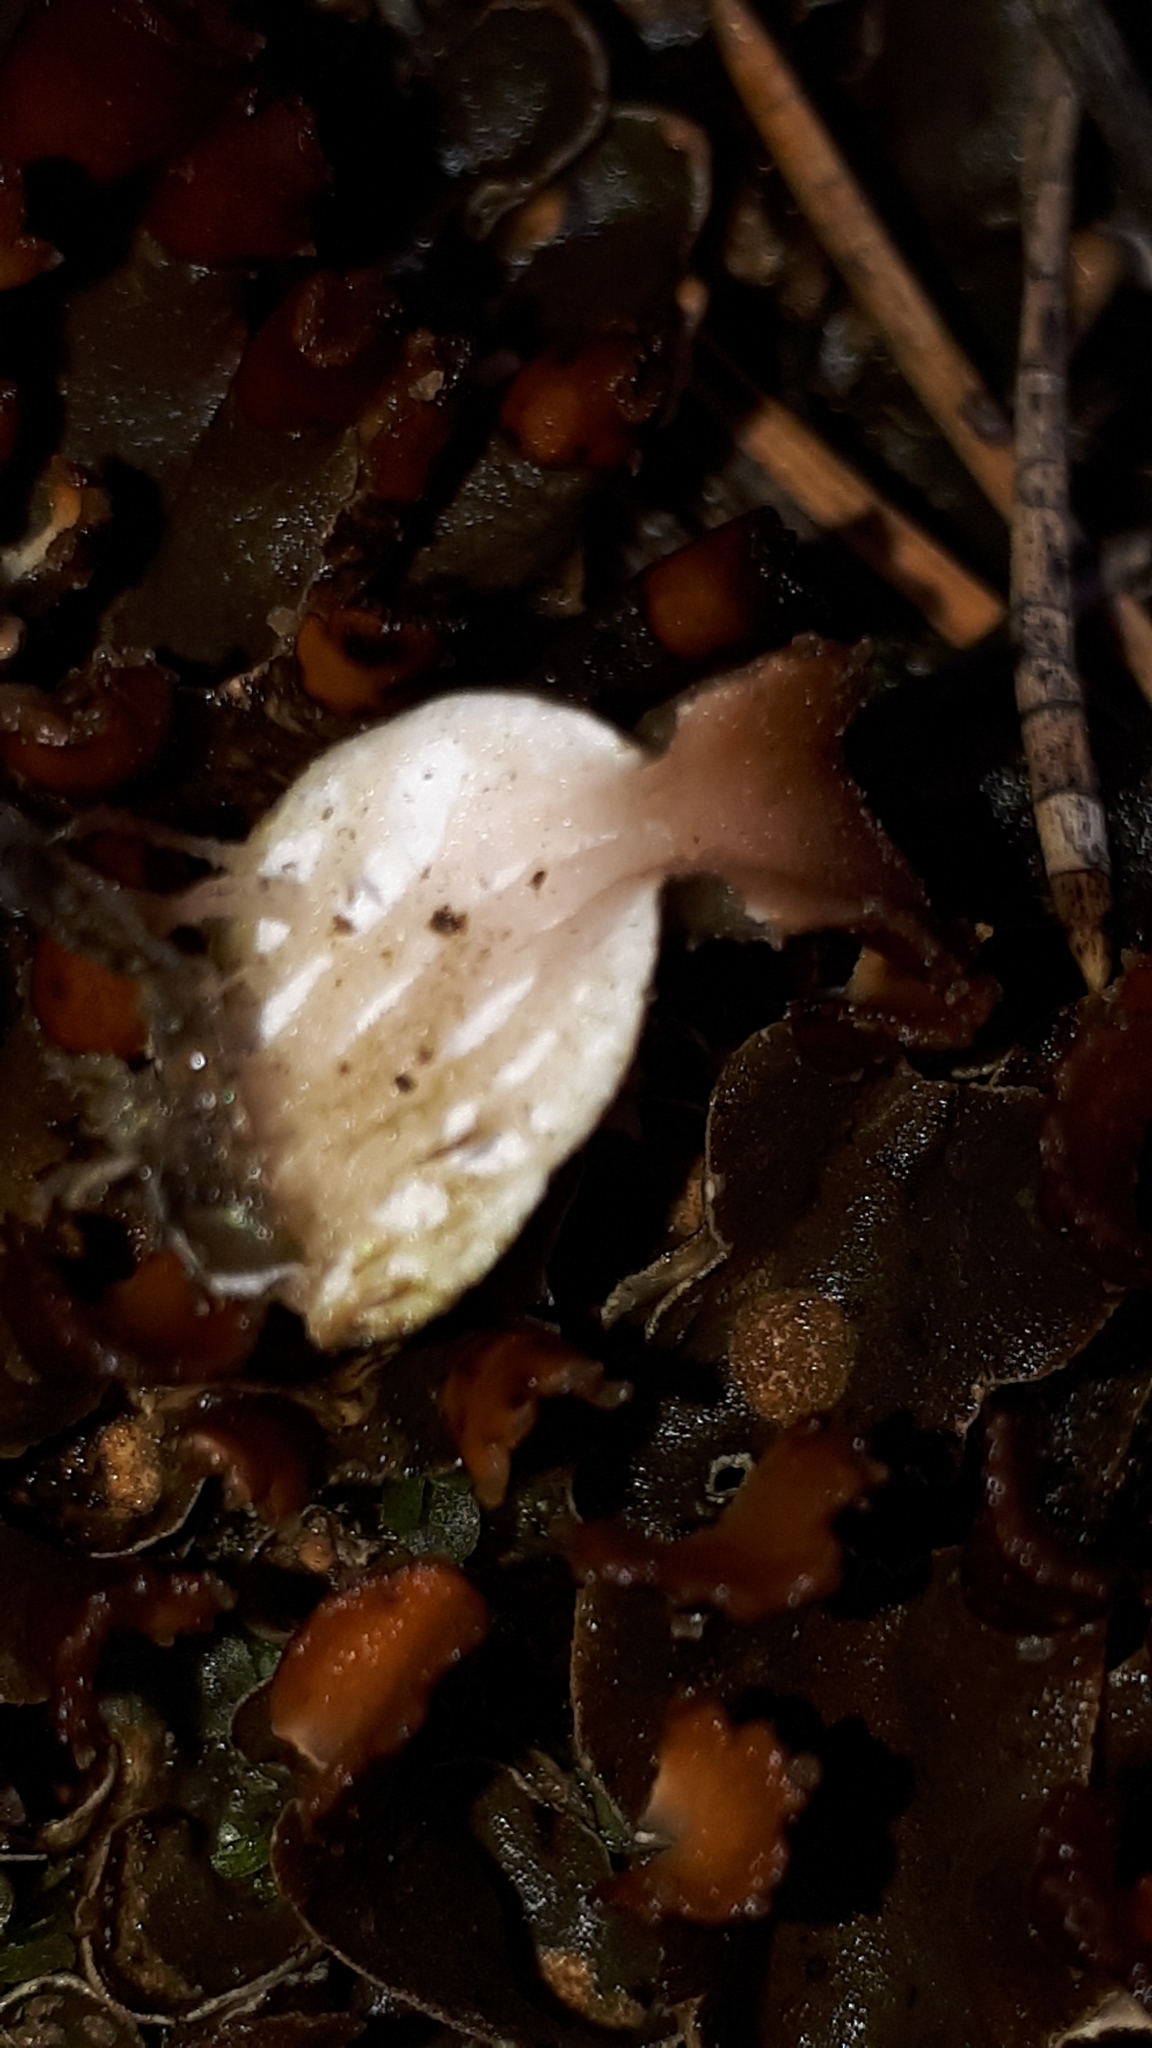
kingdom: Fungi
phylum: Ascomycota
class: Lecanoromycetes
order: Peltigerales
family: Peltigeraceae
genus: Peltigera
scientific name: Peltigera didactyla
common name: Alternating dog lichen
